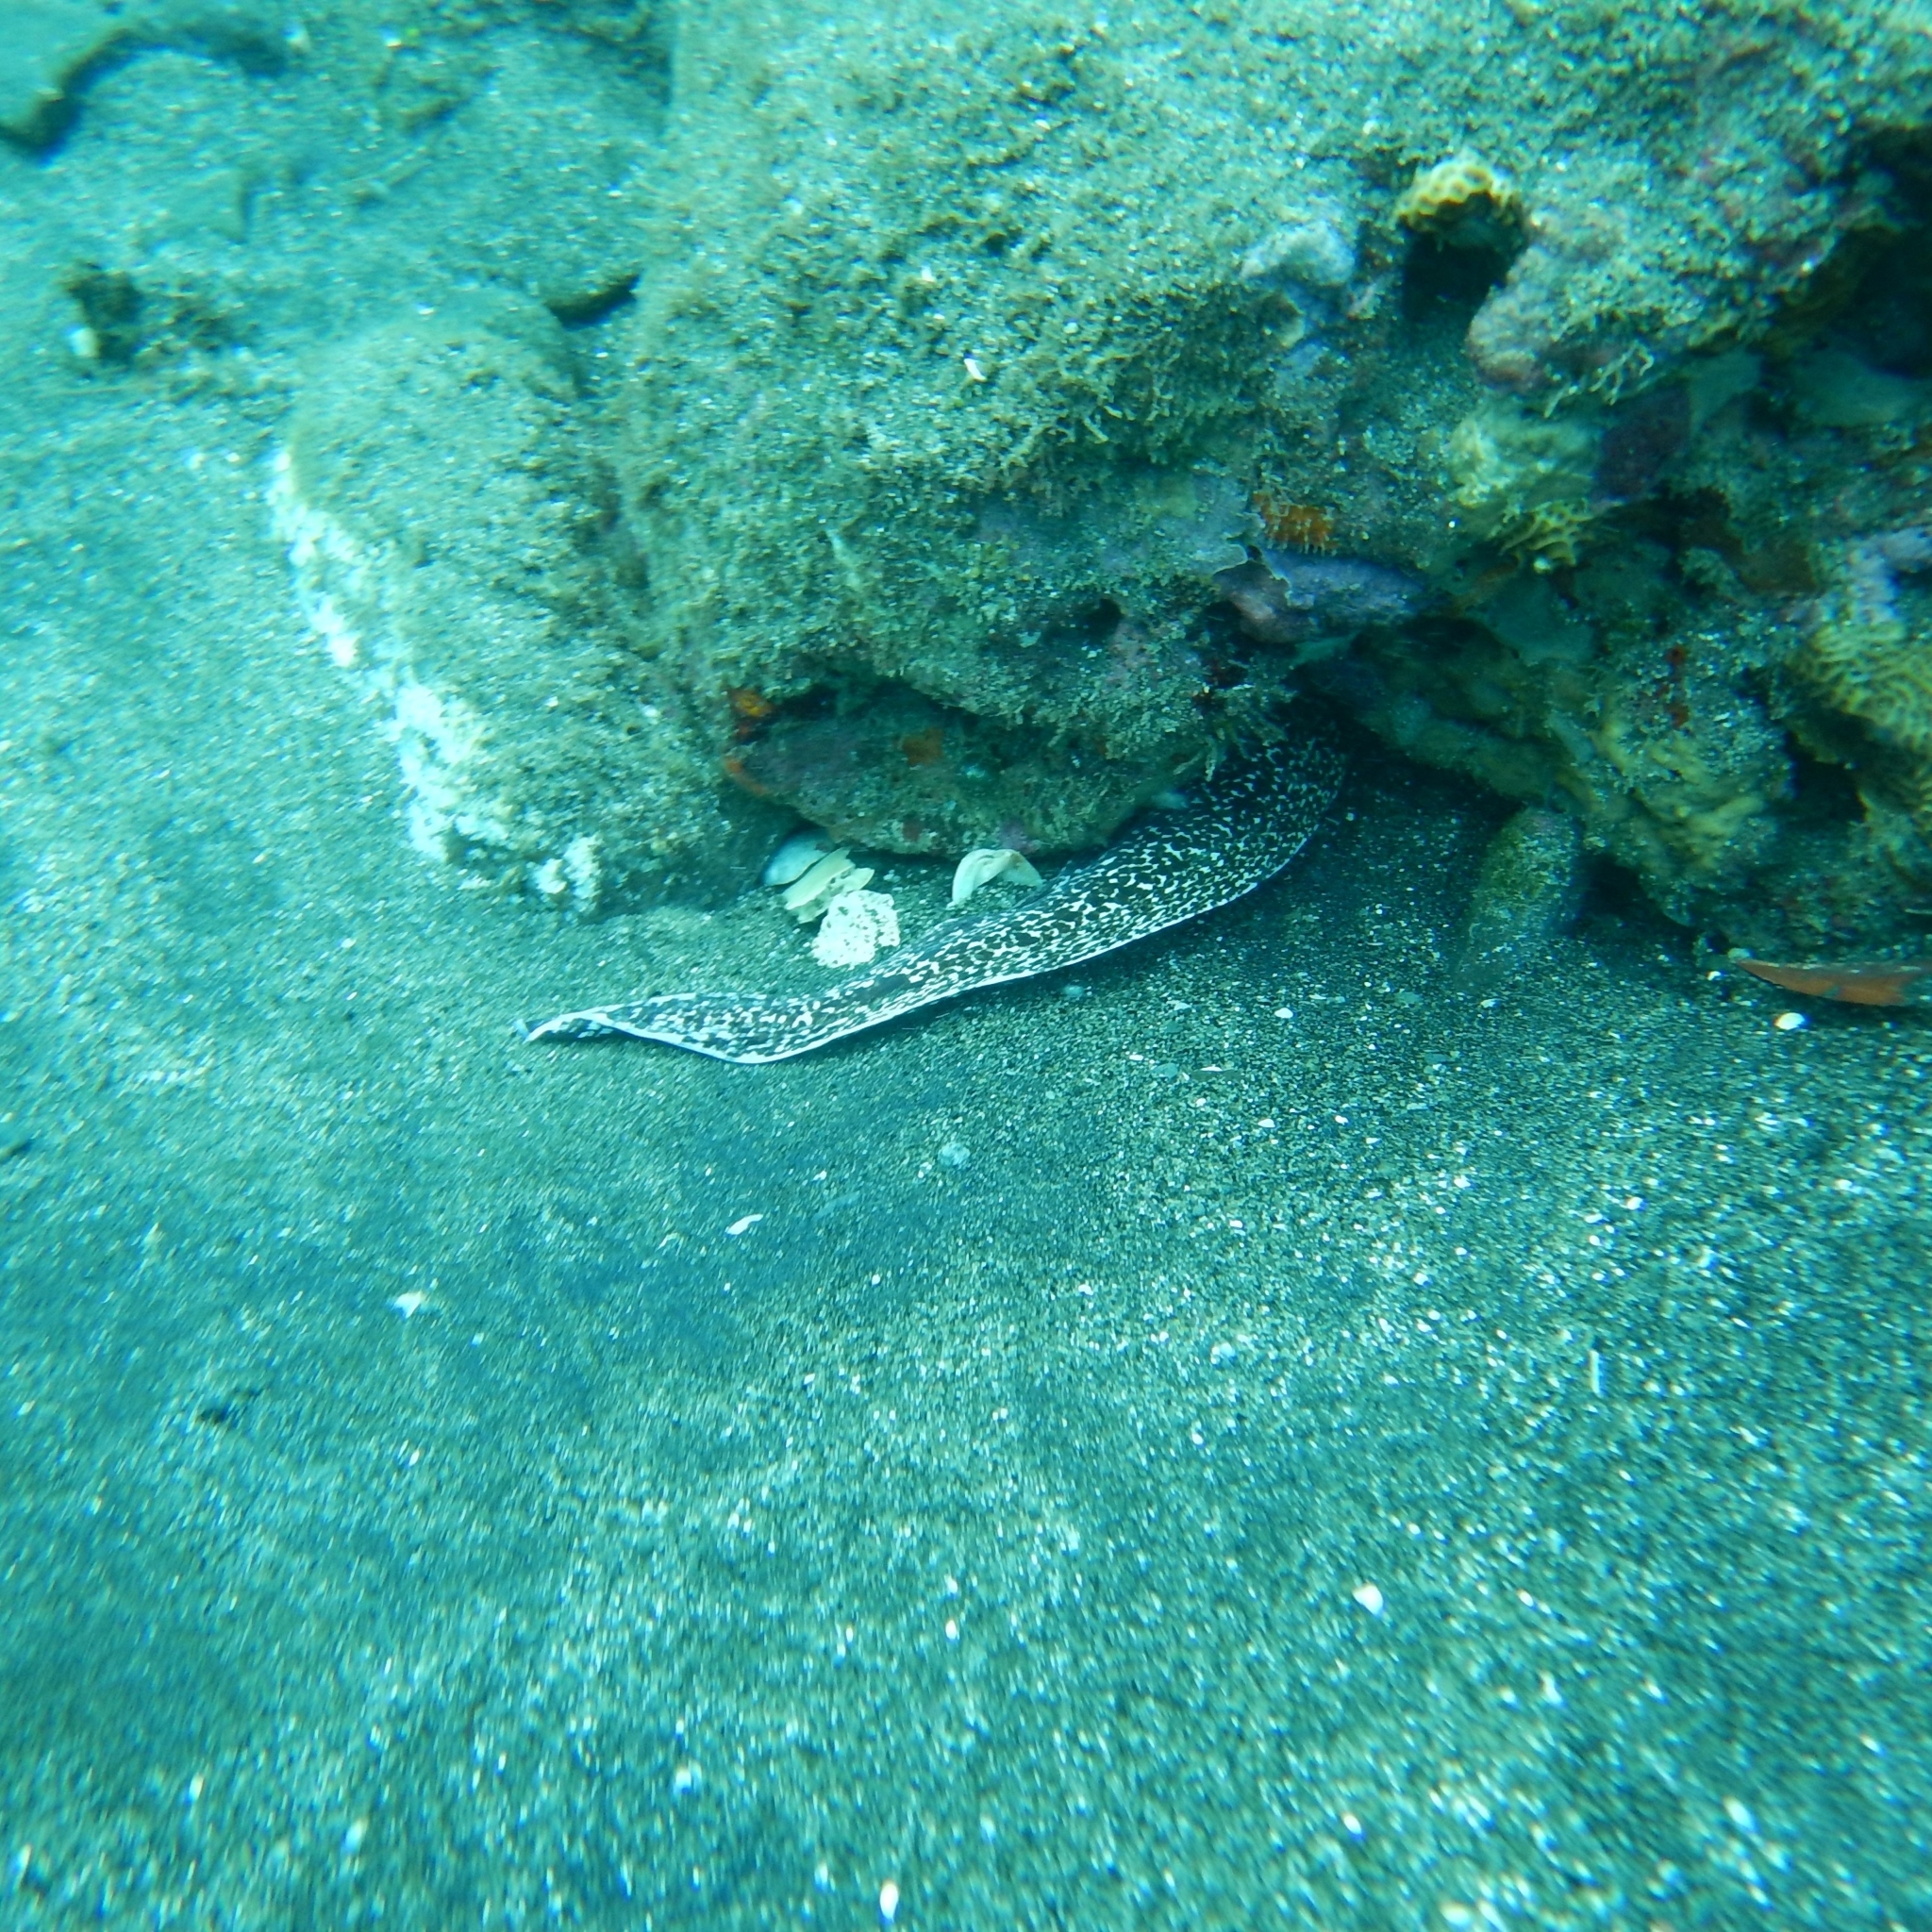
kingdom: Animalia
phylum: Chordata
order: Anguilliformes
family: Muraenidae
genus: Gymnothorax
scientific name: Gymnothorax moringa
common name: Spotted moray
